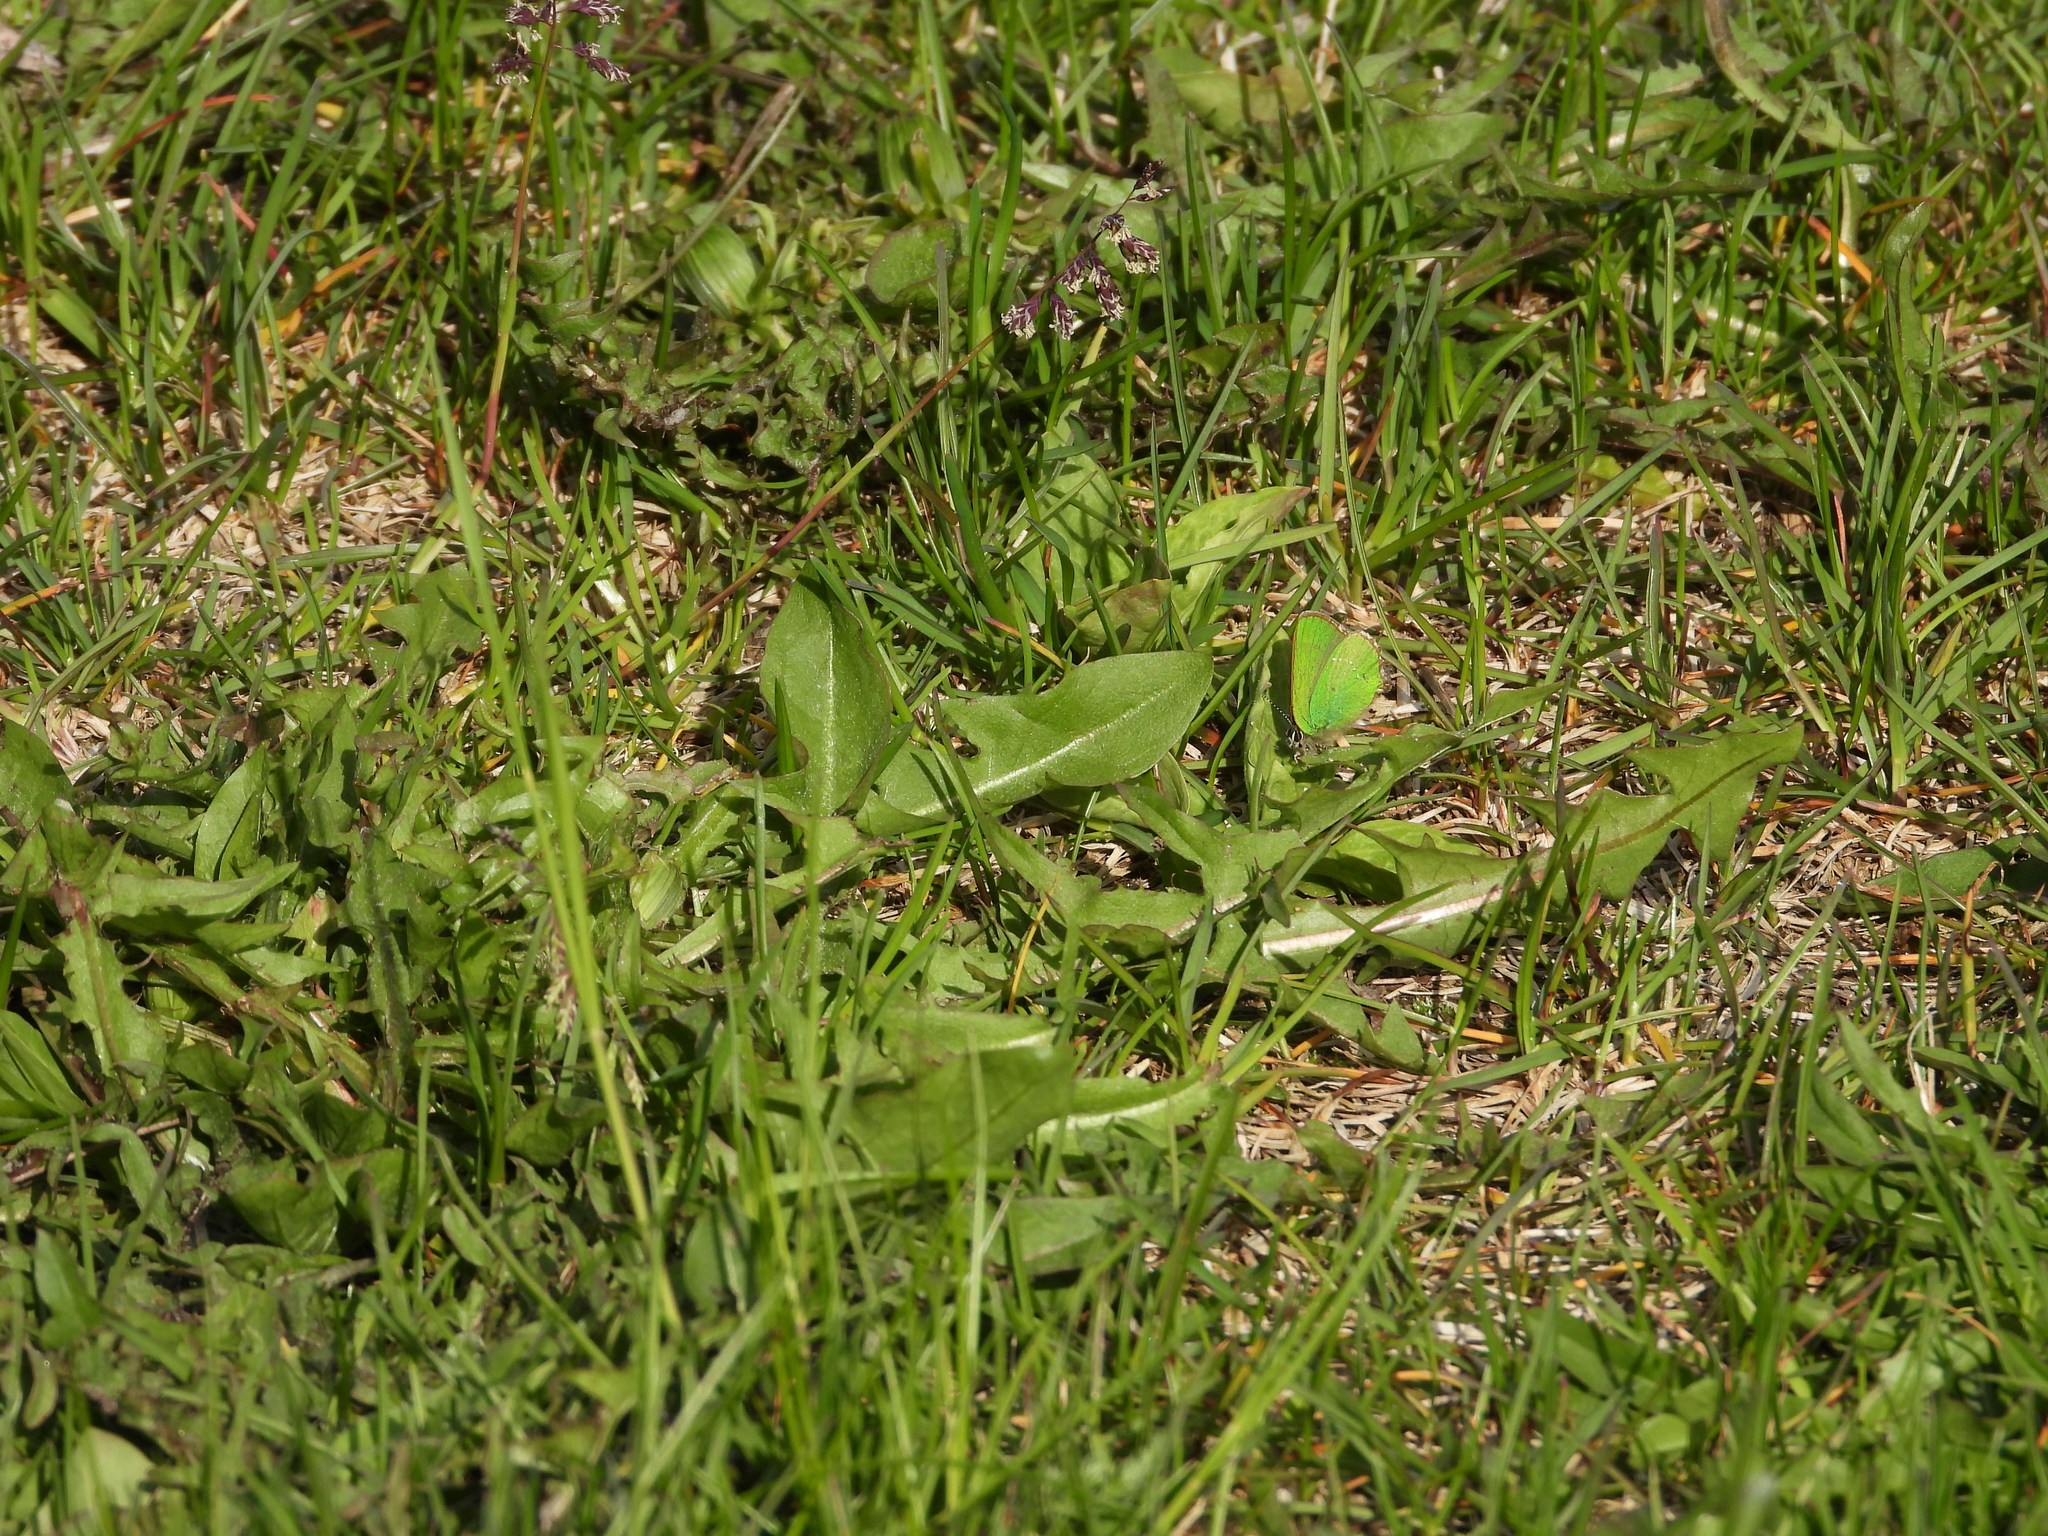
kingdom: Animalia
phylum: Arthropoda
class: Insecta
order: Lepidoptera
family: Lycaenidae
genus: Callophrys
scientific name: Callophrys rubi
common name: Green hairstreak
